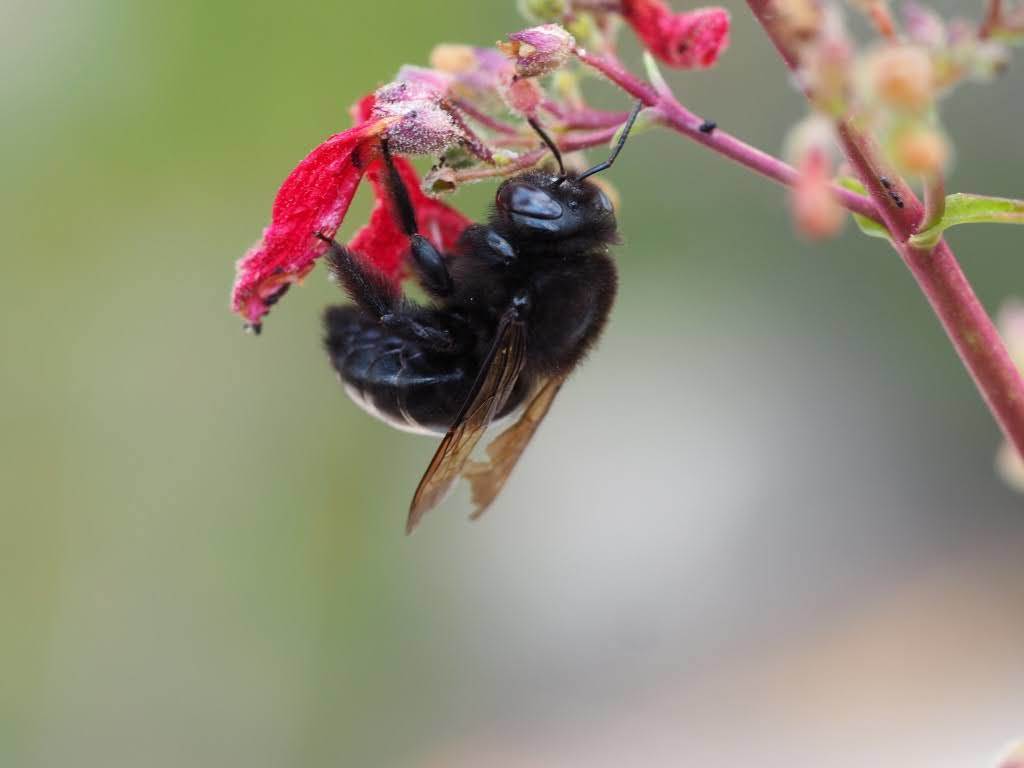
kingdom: Animalia
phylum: Arthropoda
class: Insecta
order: Hymenoptera
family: Apidae
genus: Xylocopa
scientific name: Xylocopa tabaniformis
